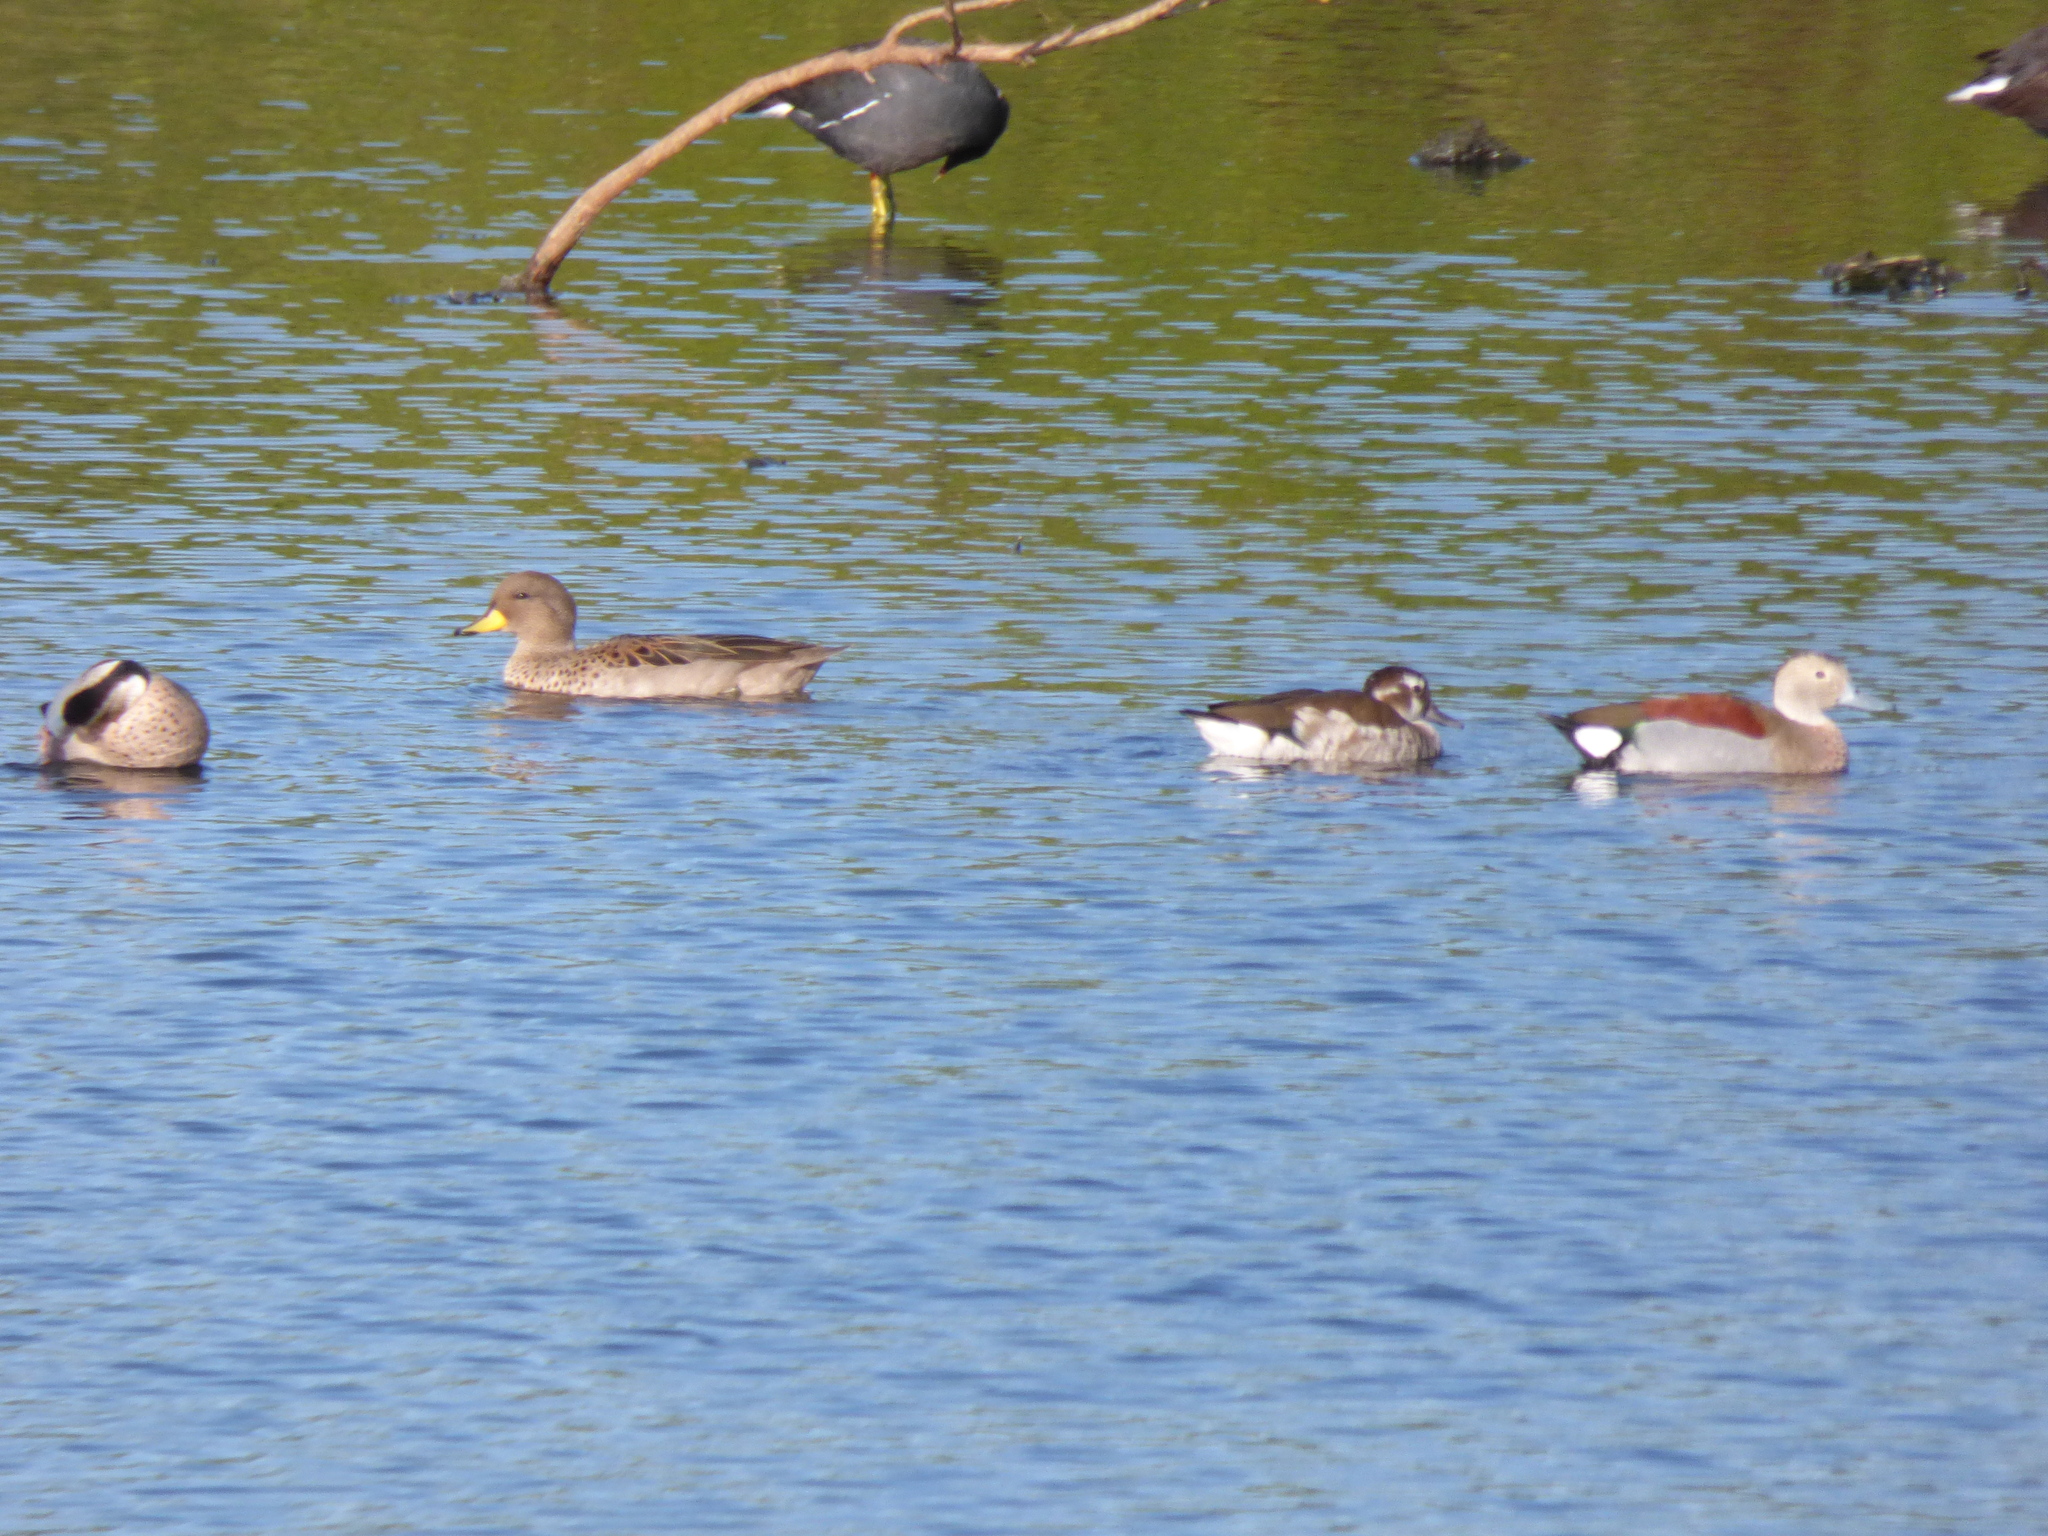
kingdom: Animalia
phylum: Chordata
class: Aves
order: Anseriformes
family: Anatidae
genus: Anas
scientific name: Anas flavirostris
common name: Yellow-billed teal
